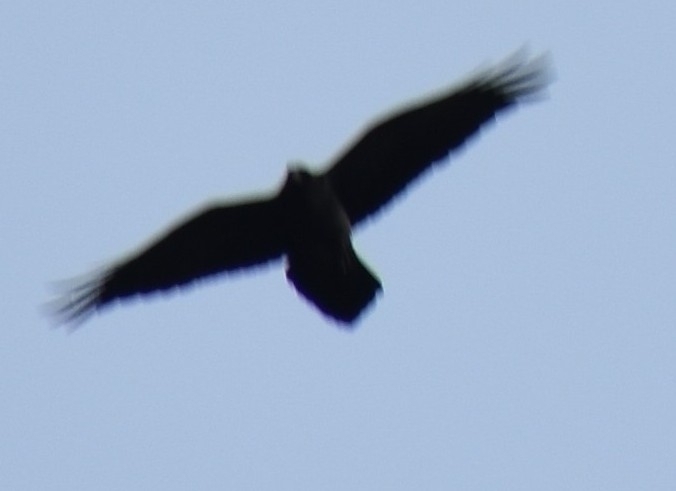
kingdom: Animalia
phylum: Chordata
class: Aves
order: Passeriformes
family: Corvidae
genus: Corvus
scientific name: Corvus ruficollis
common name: Brown-necked raven
